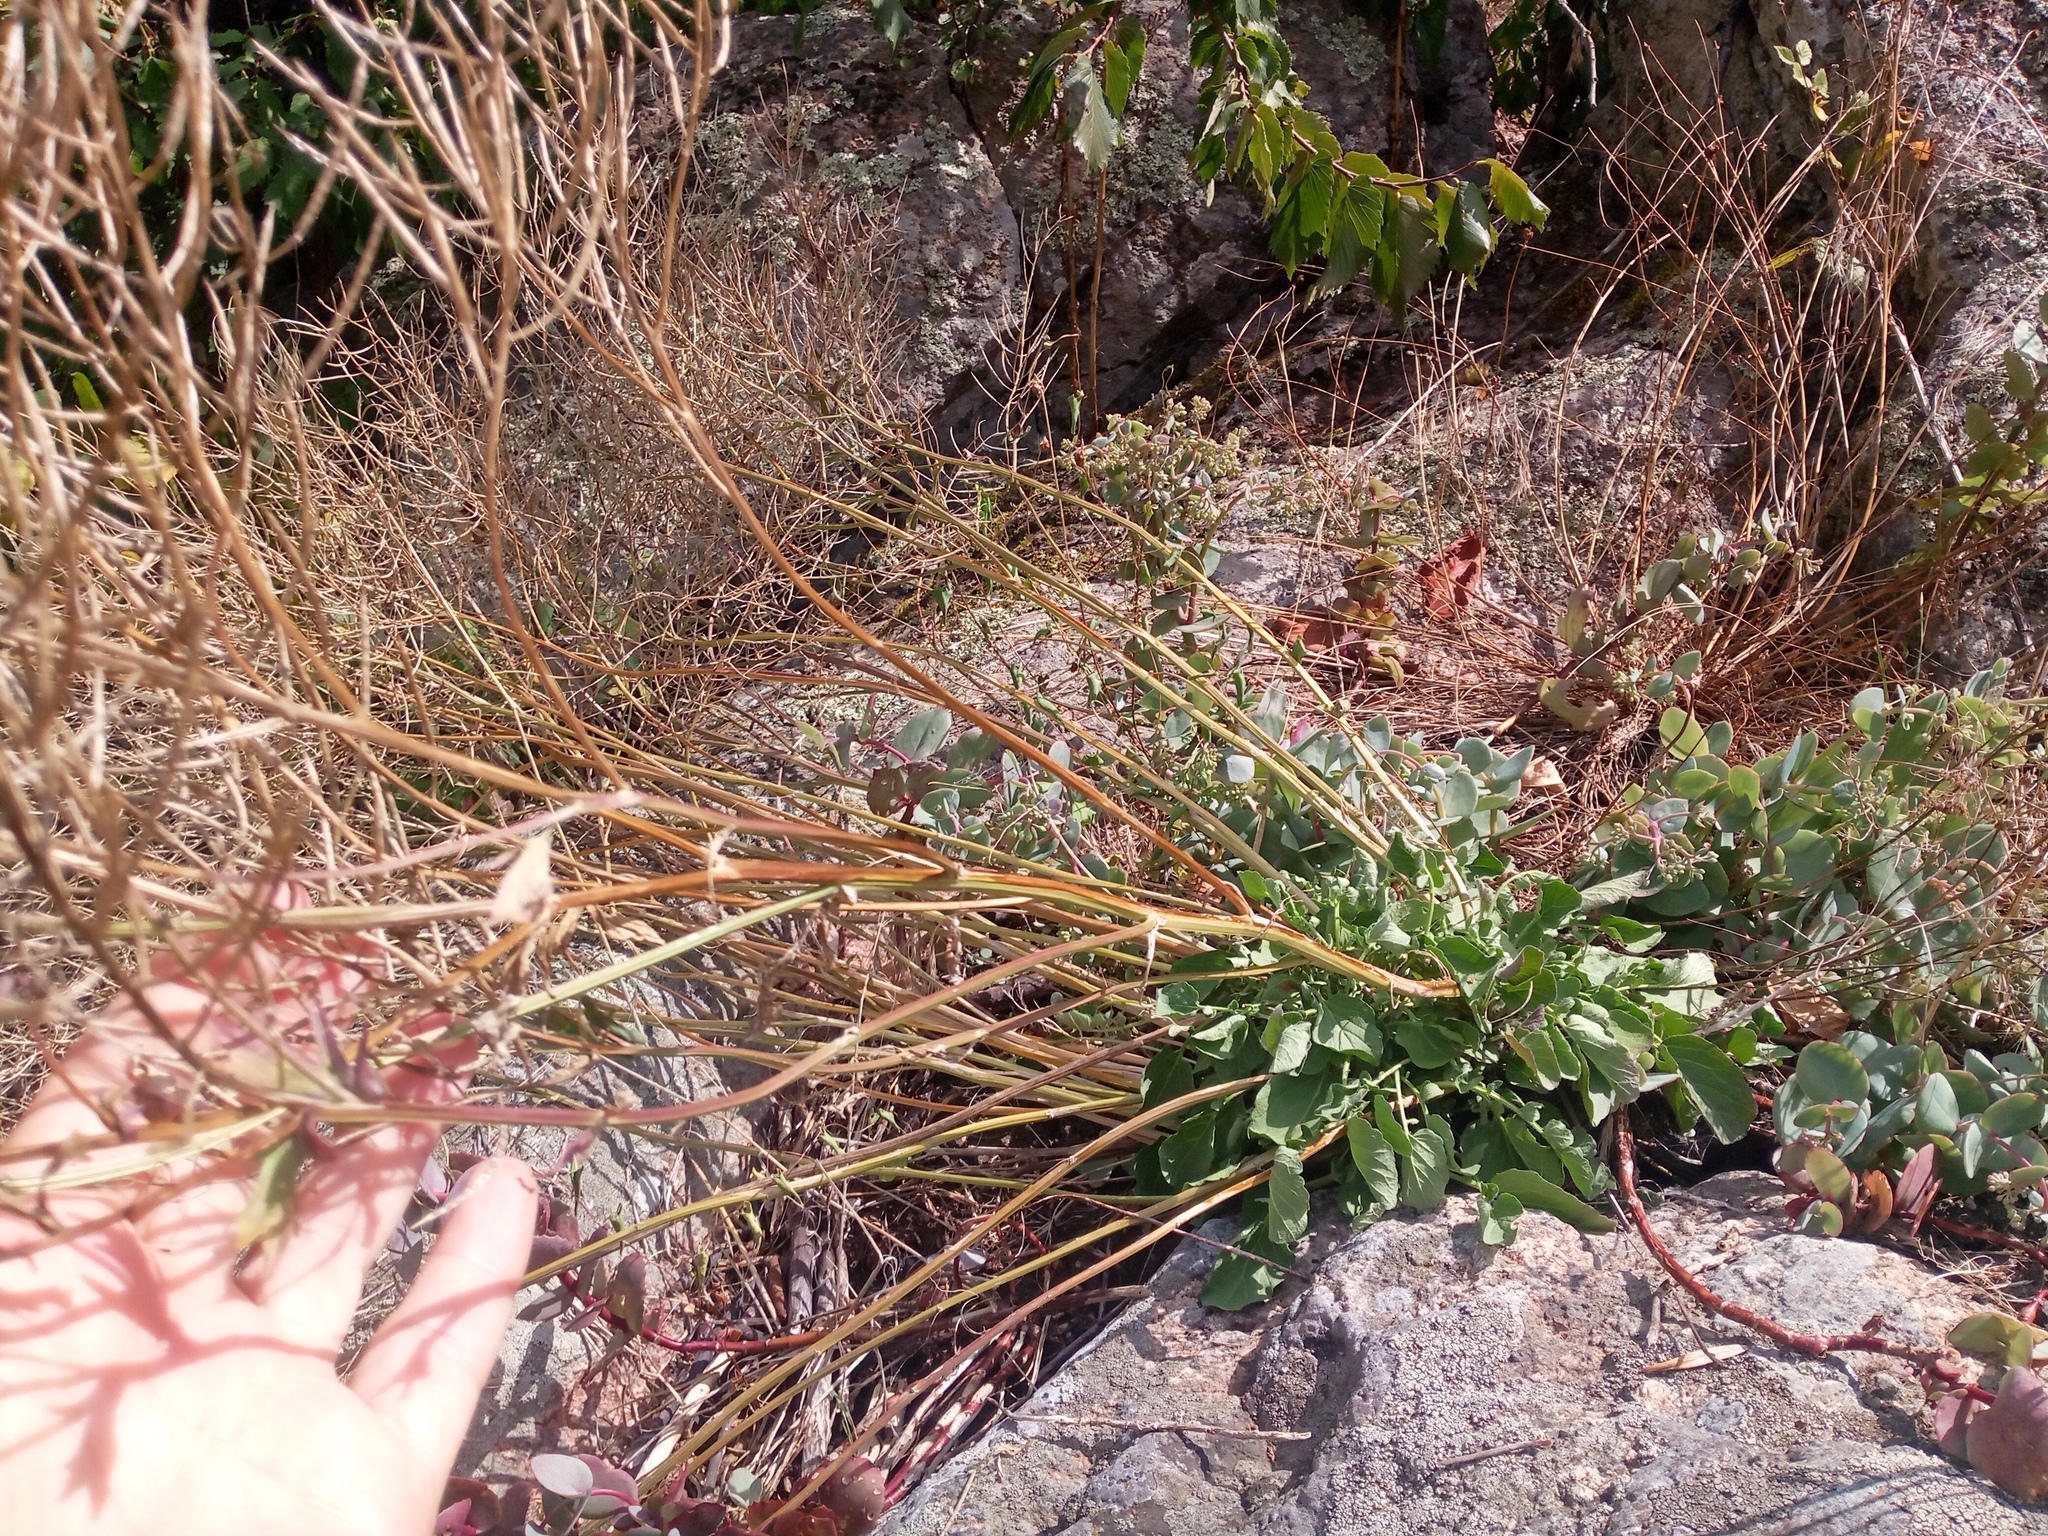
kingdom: Plantae
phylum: Tracheophyta
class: Magnoliopsida
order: Brassicales
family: Brassicaceae
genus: Barbarea
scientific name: Barbarea vulgaris
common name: Cressy-greens
